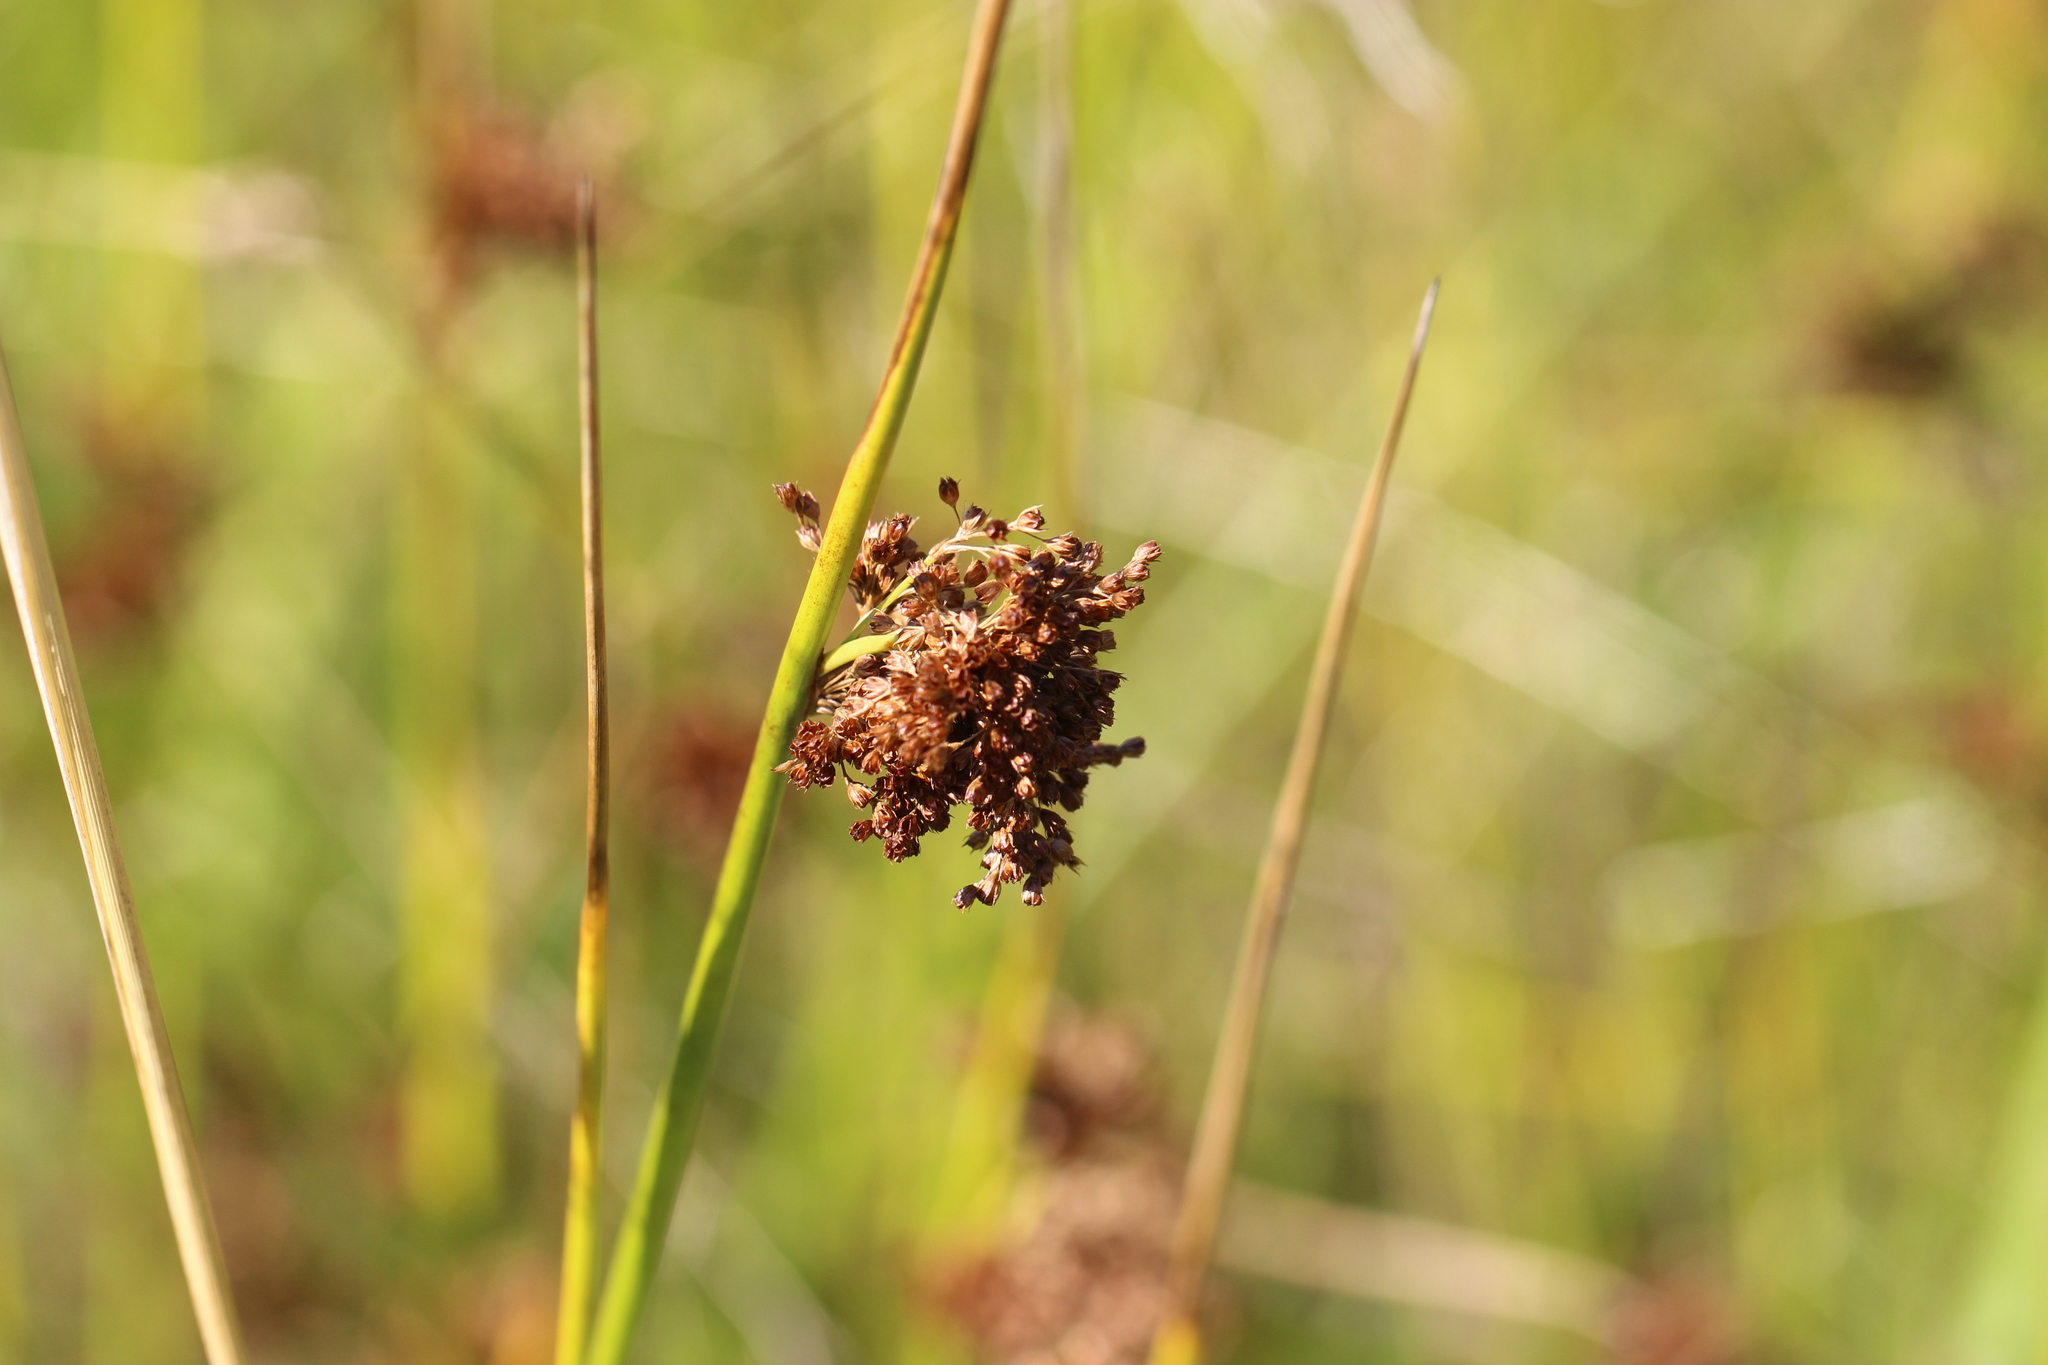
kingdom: Plantae
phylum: Tracheophyta
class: Liliopsida
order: Poales
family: Juncaceae
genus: Juncus
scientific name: Juncus effusus
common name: Soft rush
